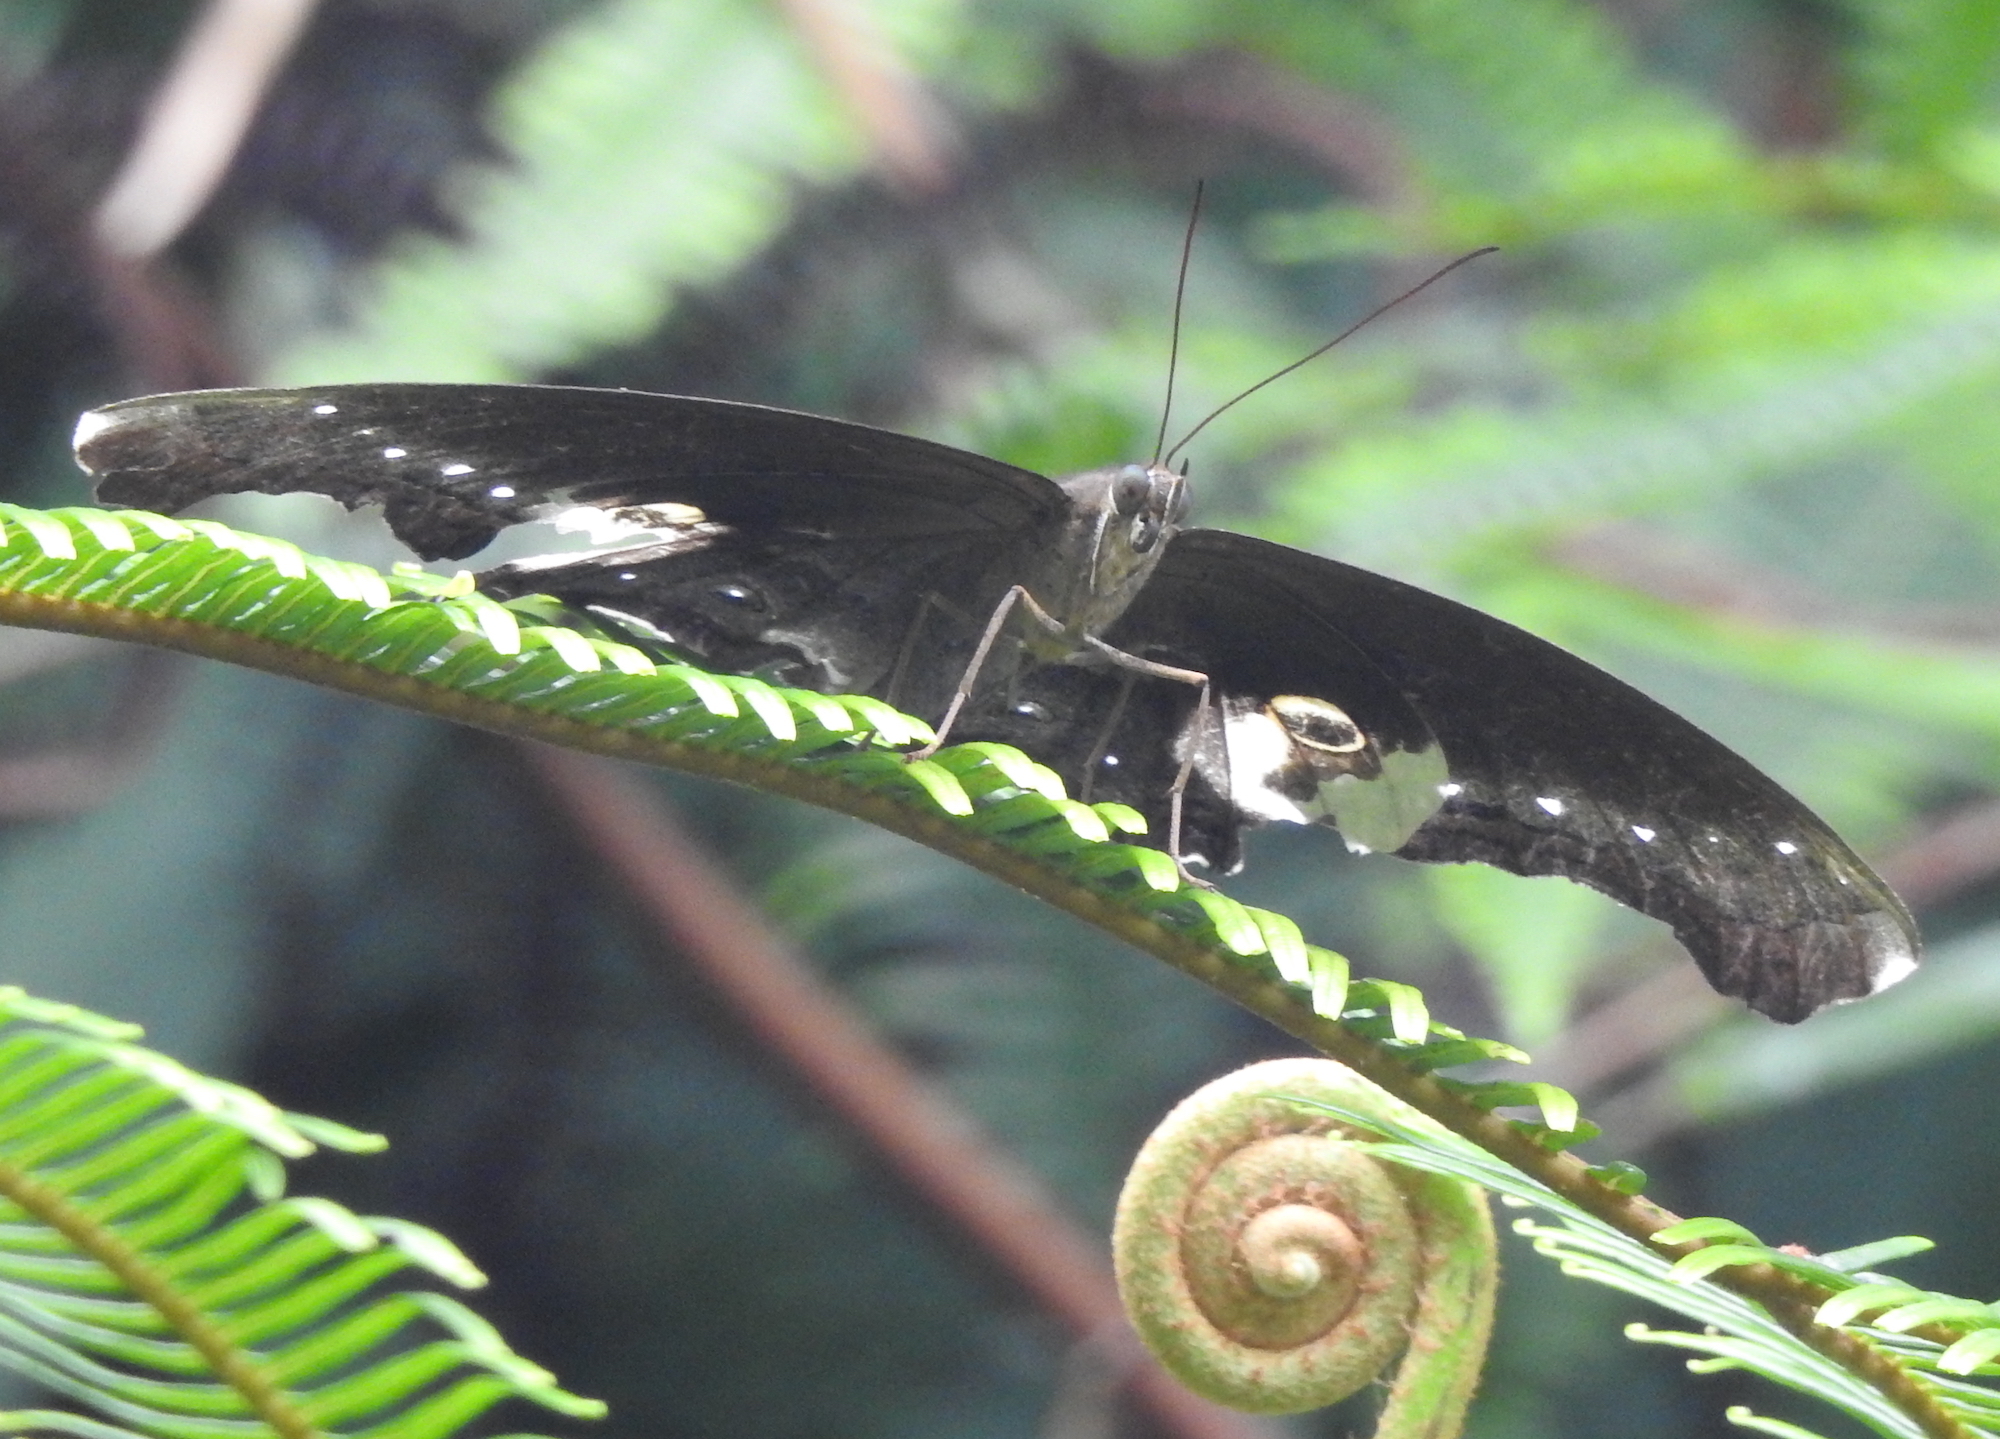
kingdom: Animalia
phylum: Arthropoda
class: Insecta
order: Lepidoptera
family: Nymphalidae
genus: Neorina
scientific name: Neorina lowii
